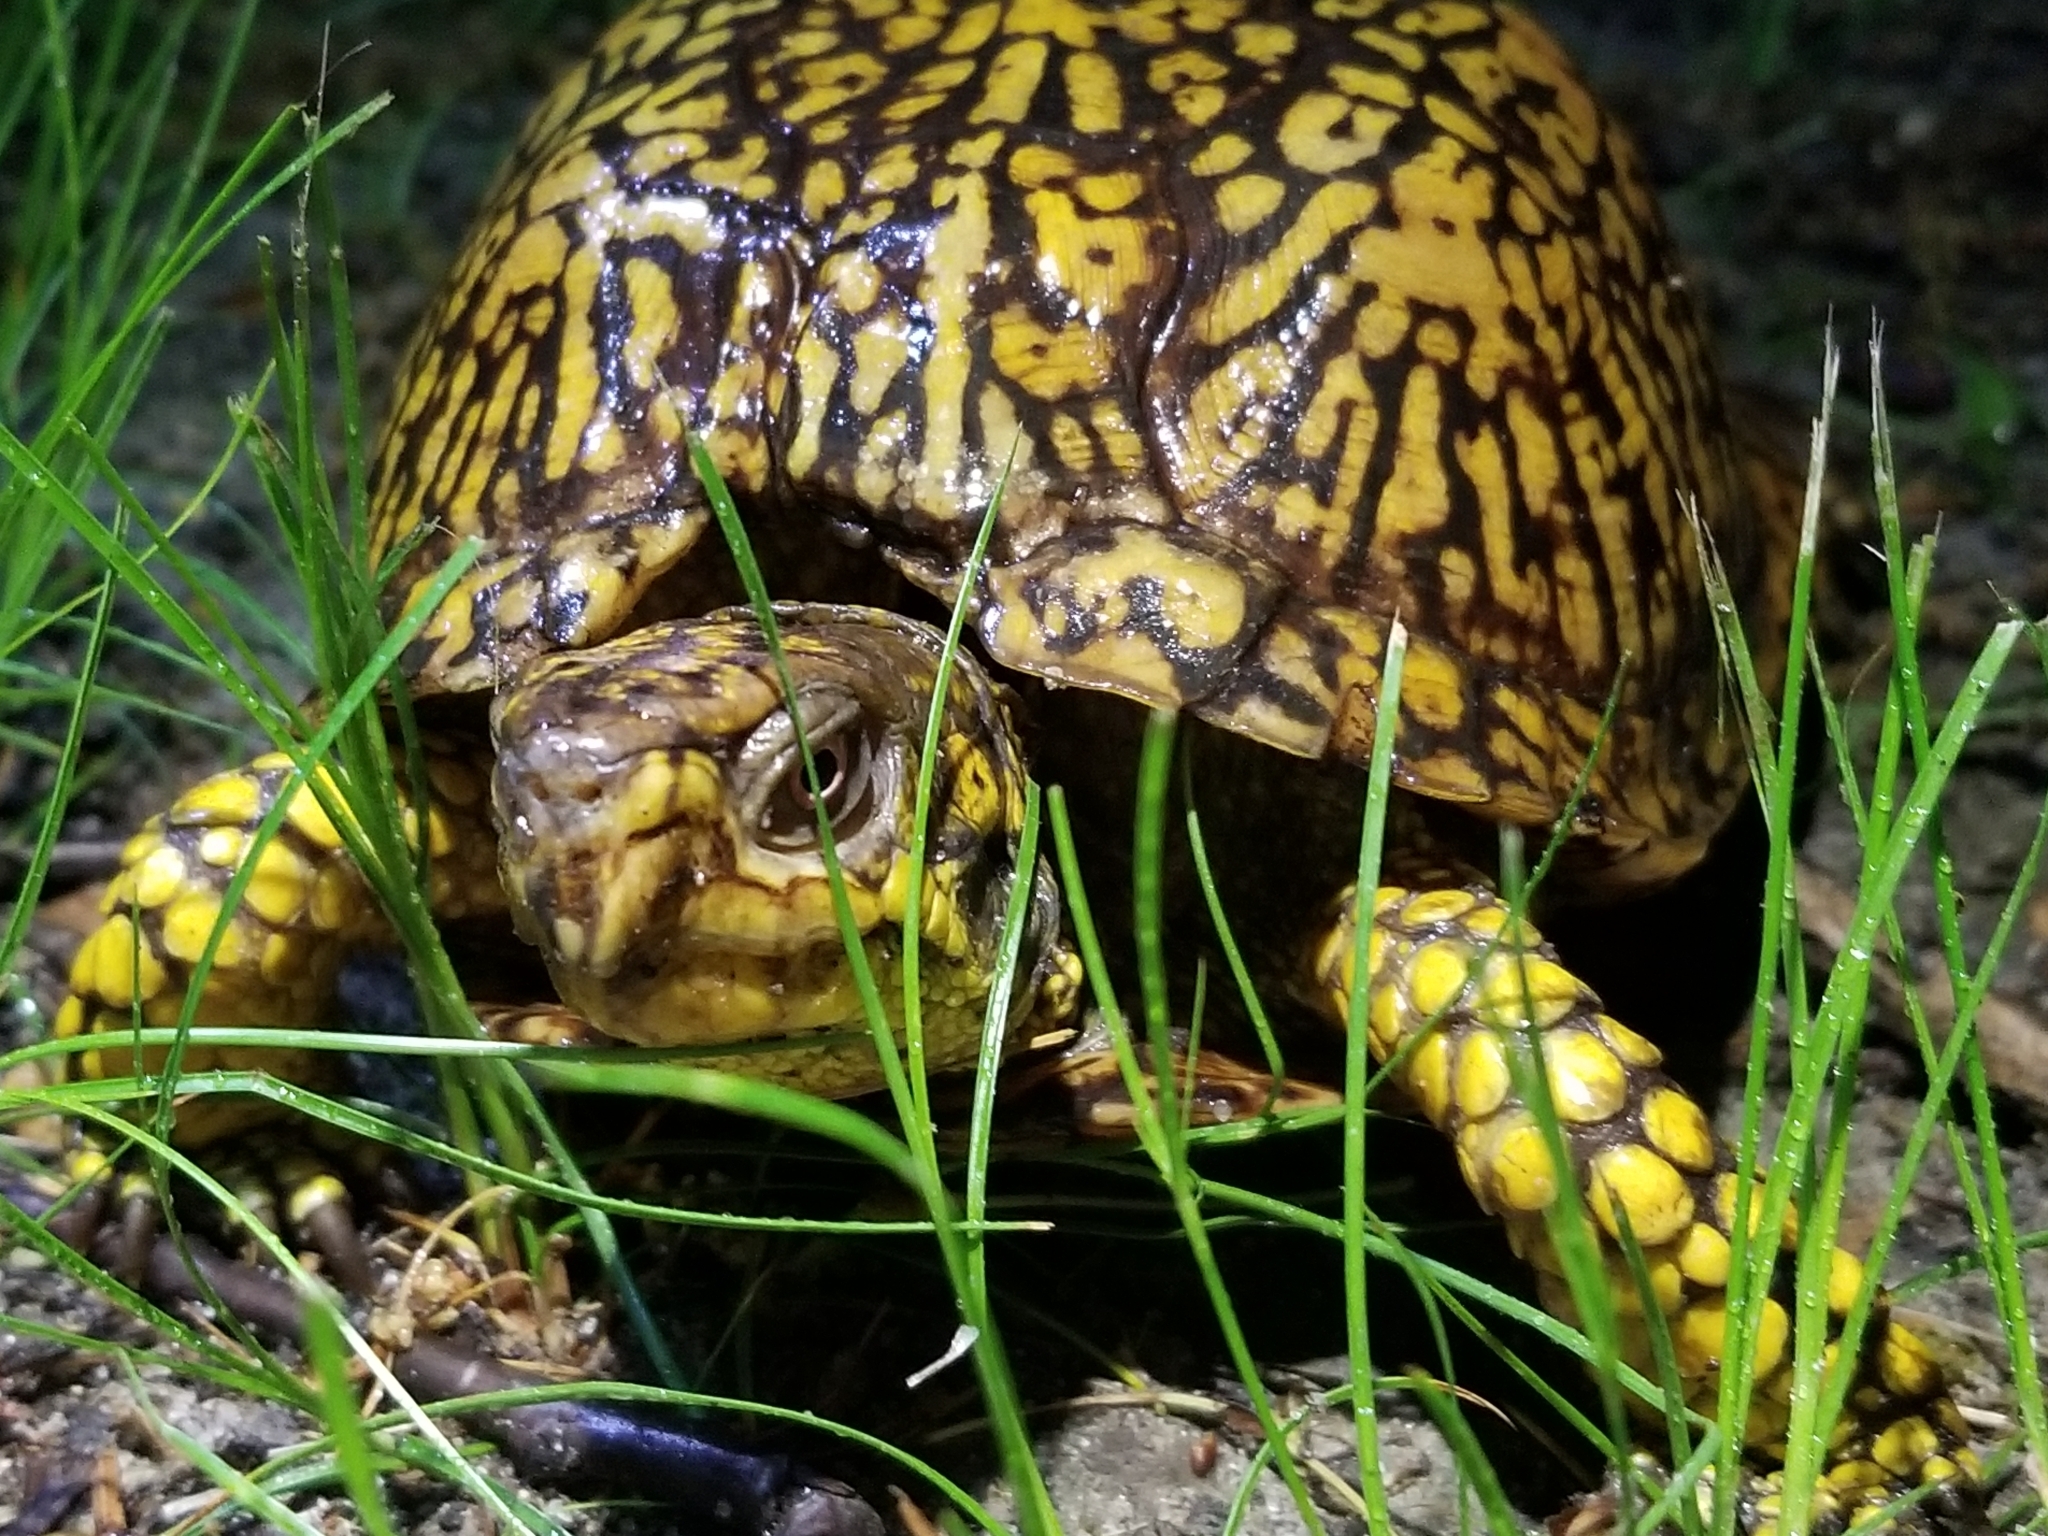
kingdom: Animalia
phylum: Chordata
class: Testudines
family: Emydidae
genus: Terrapene
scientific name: Terrapene carolina
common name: Common box turtle
